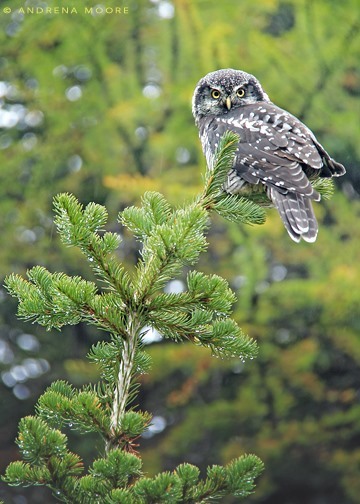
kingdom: Animalia
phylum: Chordata
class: Aves
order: Strigiformes
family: Strigidae
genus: Surnia
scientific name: Surnia ulula
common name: Northern hawk-owl
